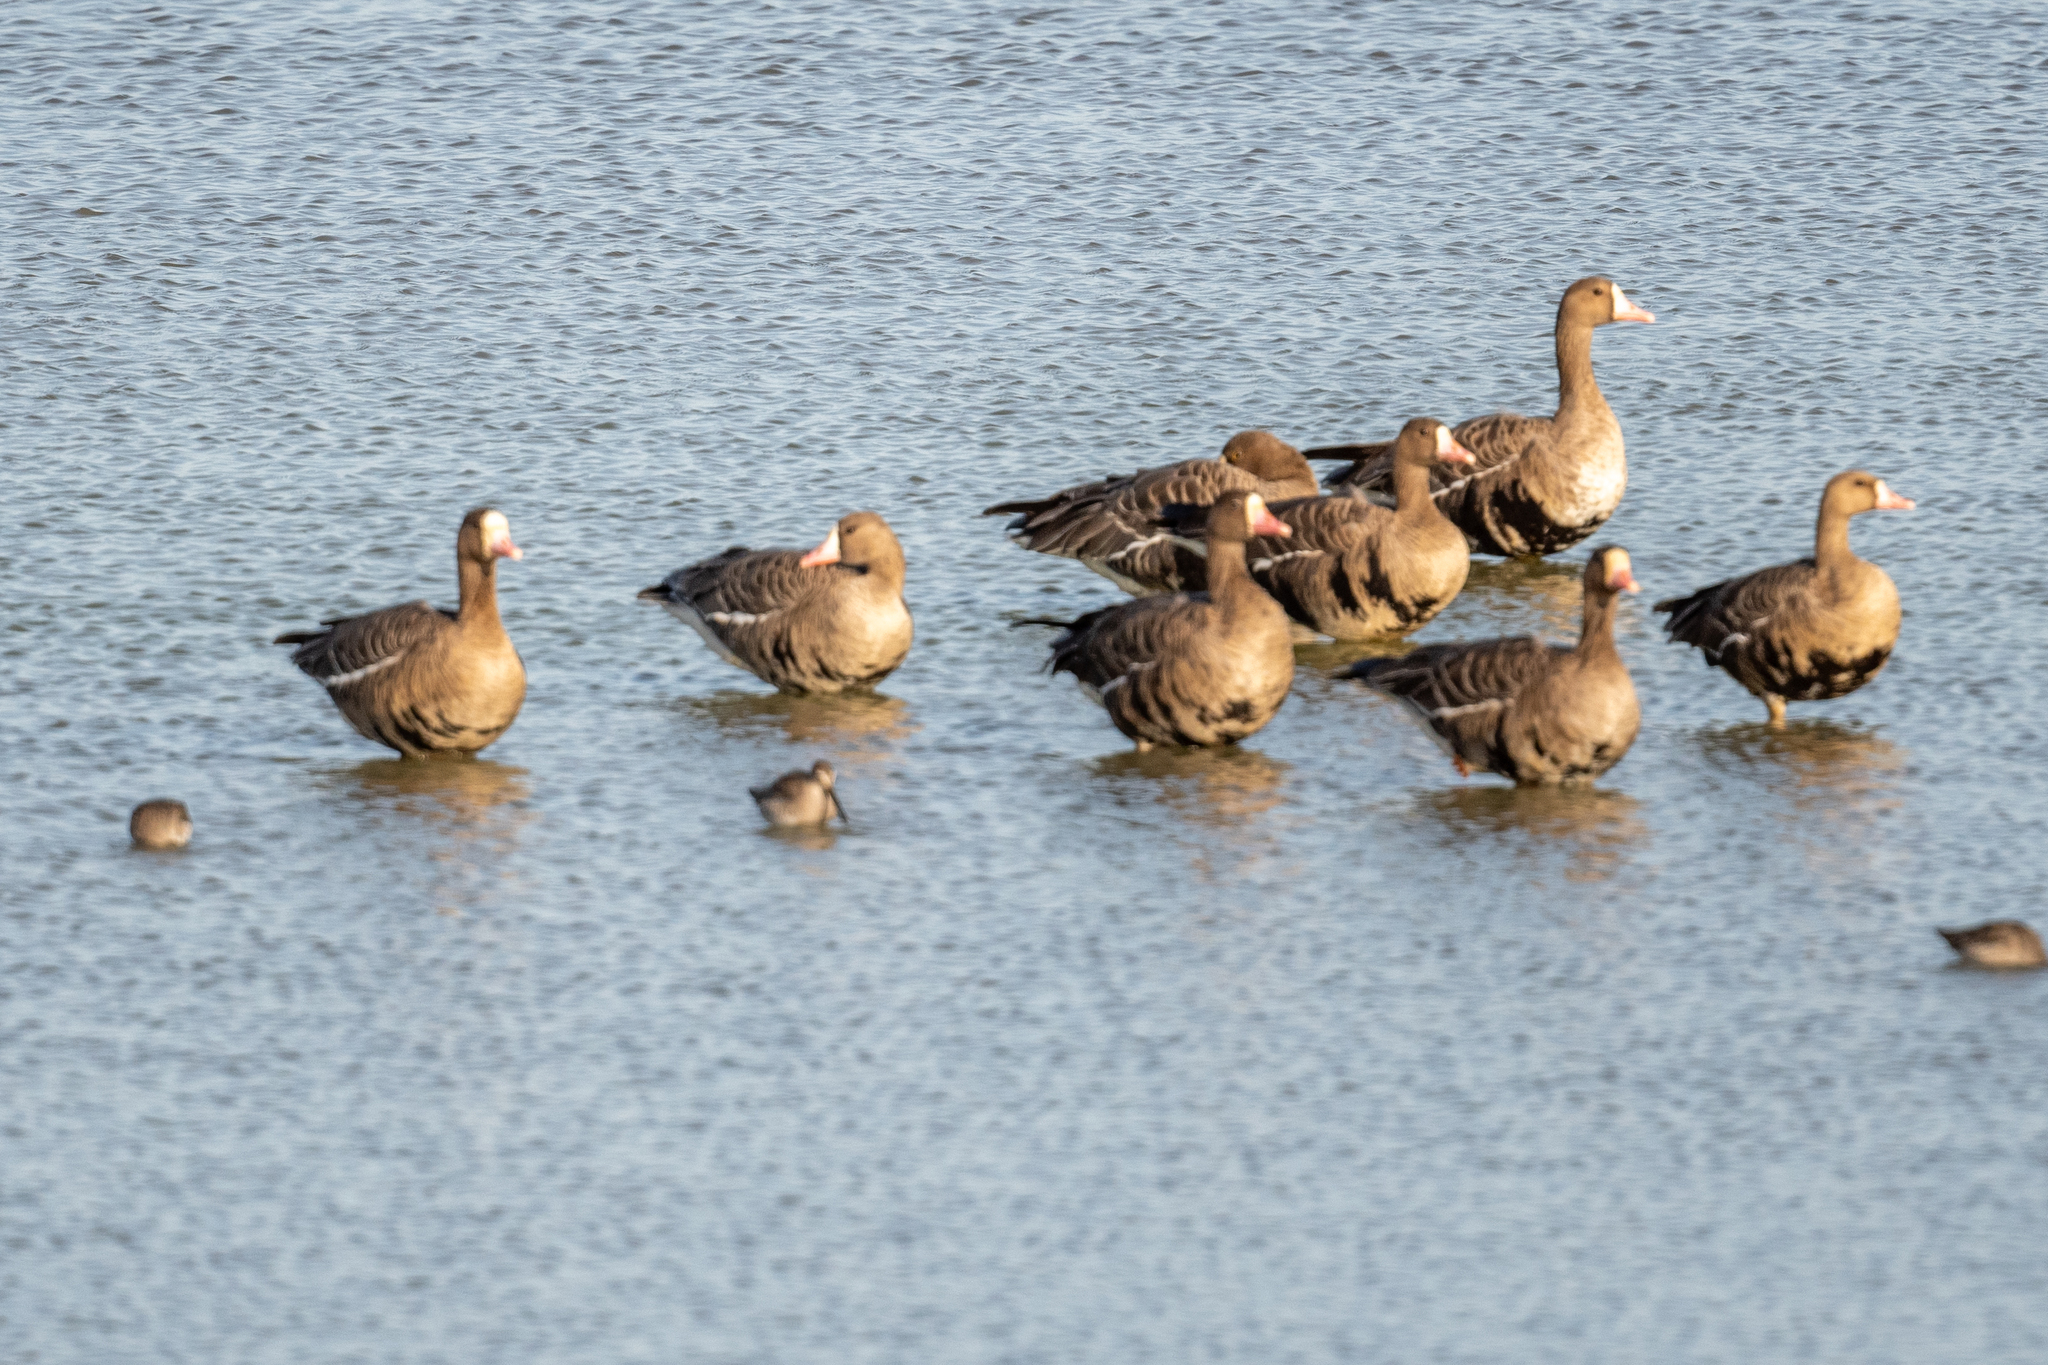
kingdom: Animalia
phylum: Chordata
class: Aves
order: Anseriformes
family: Anatidae
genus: Anser
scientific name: Anser albifrons
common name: Greater white-fronted goose
